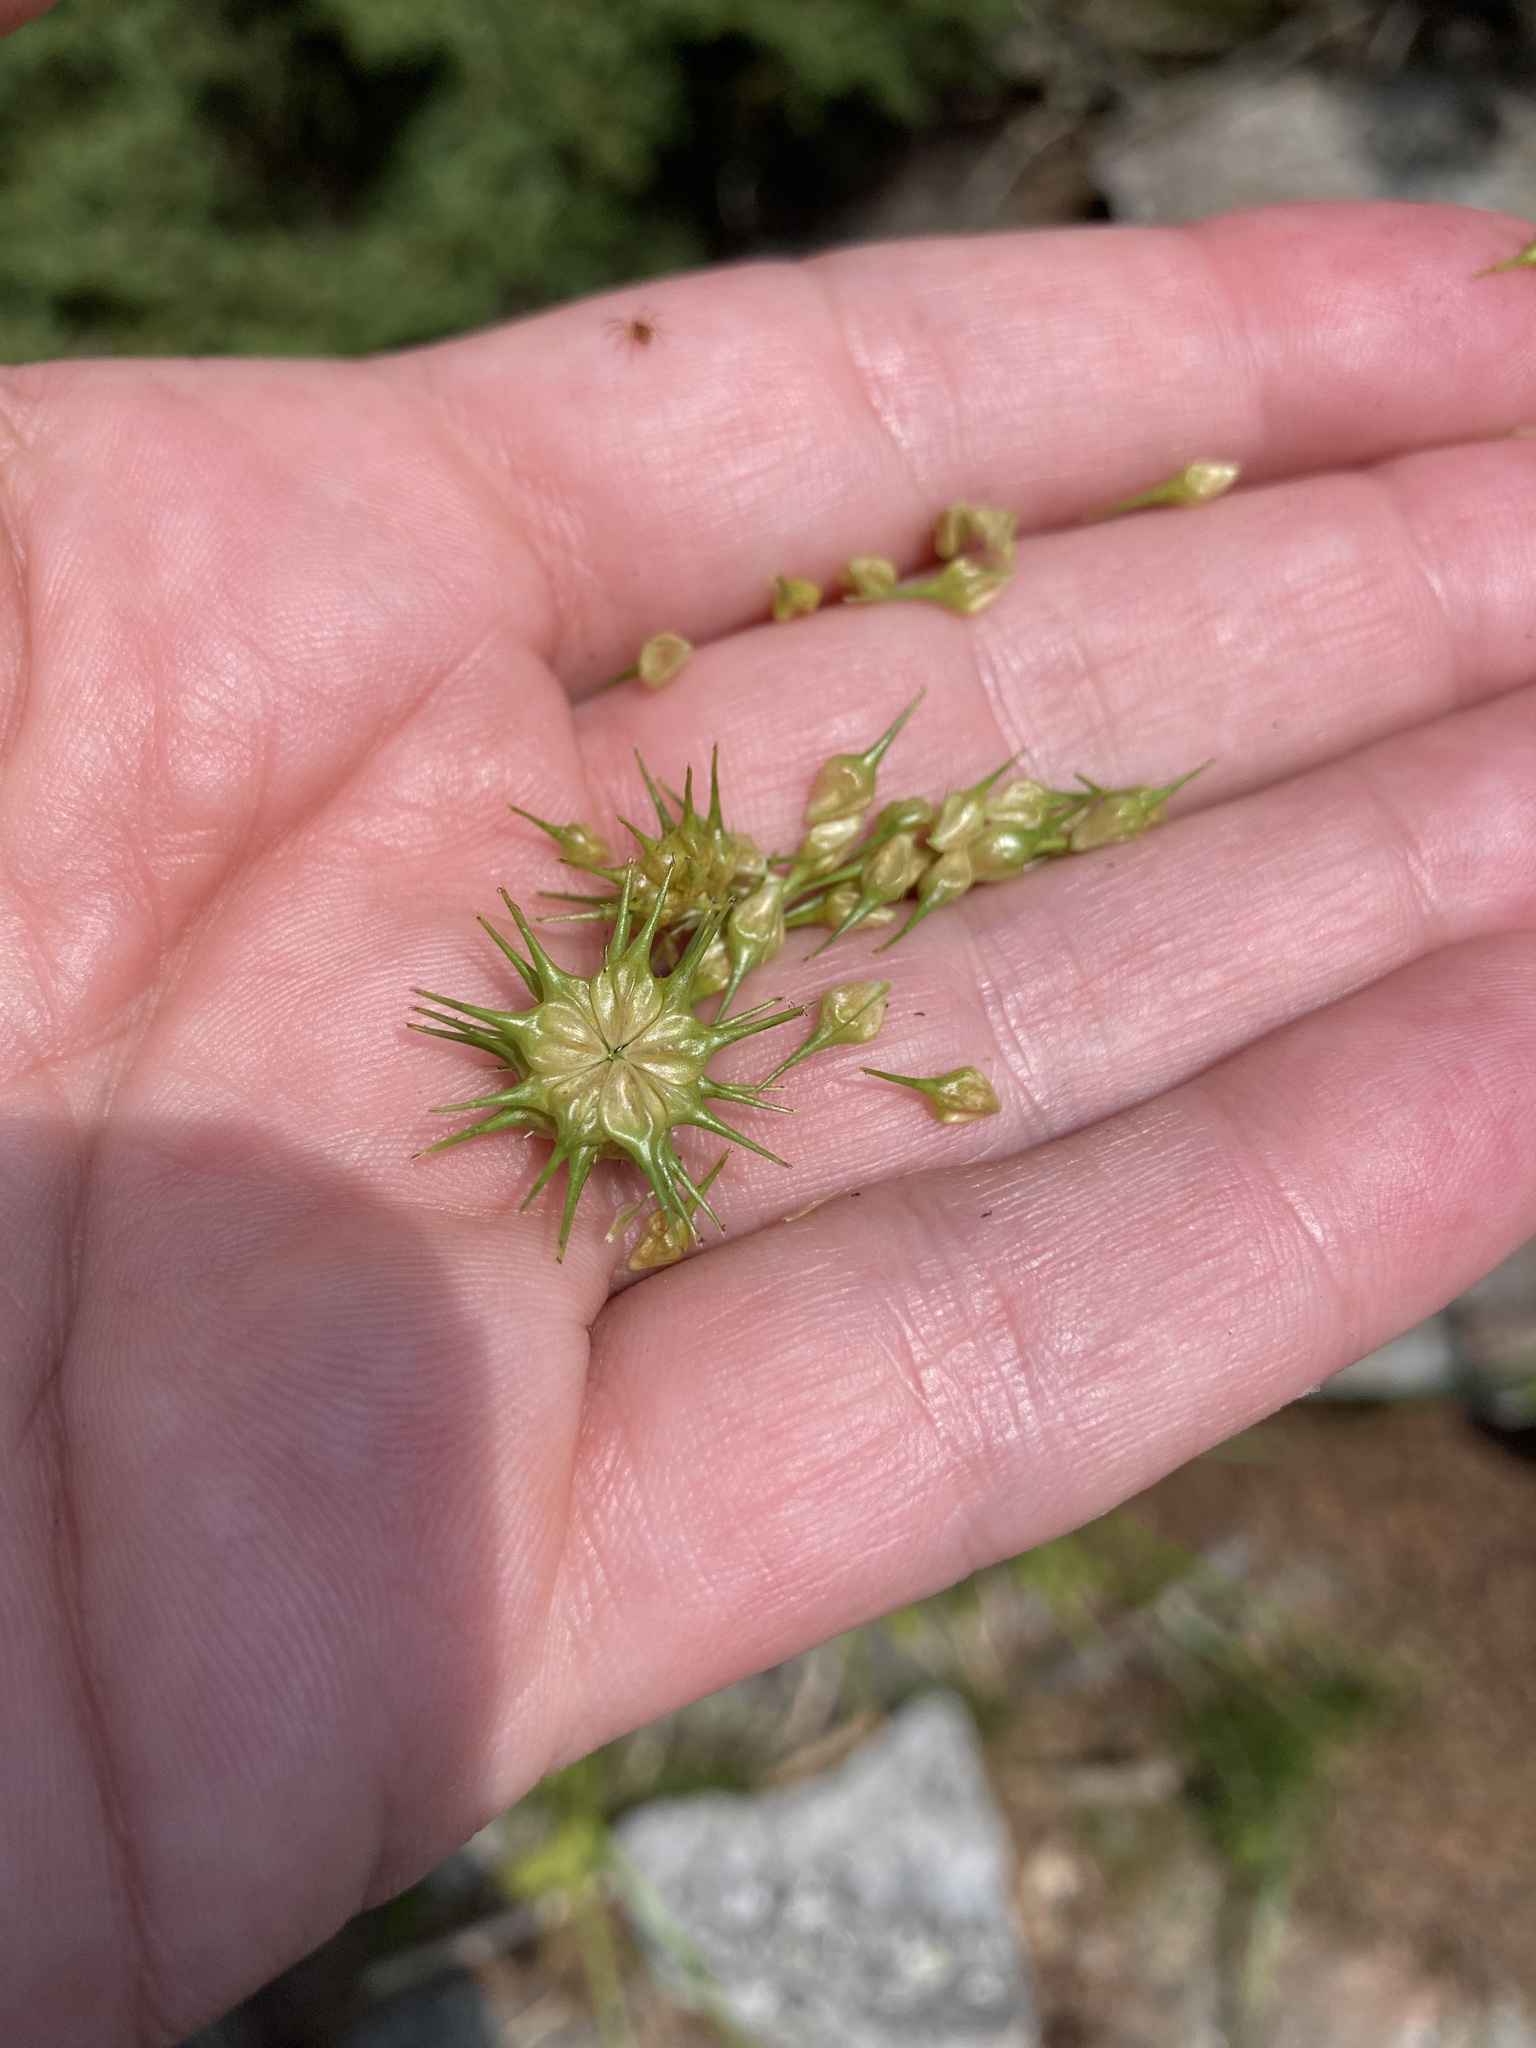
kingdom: Plantae
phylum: Tracheophyta
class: Liliopsida
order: Poales
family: Cyperaceae
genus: Carex
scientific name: Carex lurida
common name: Sallow sedge
